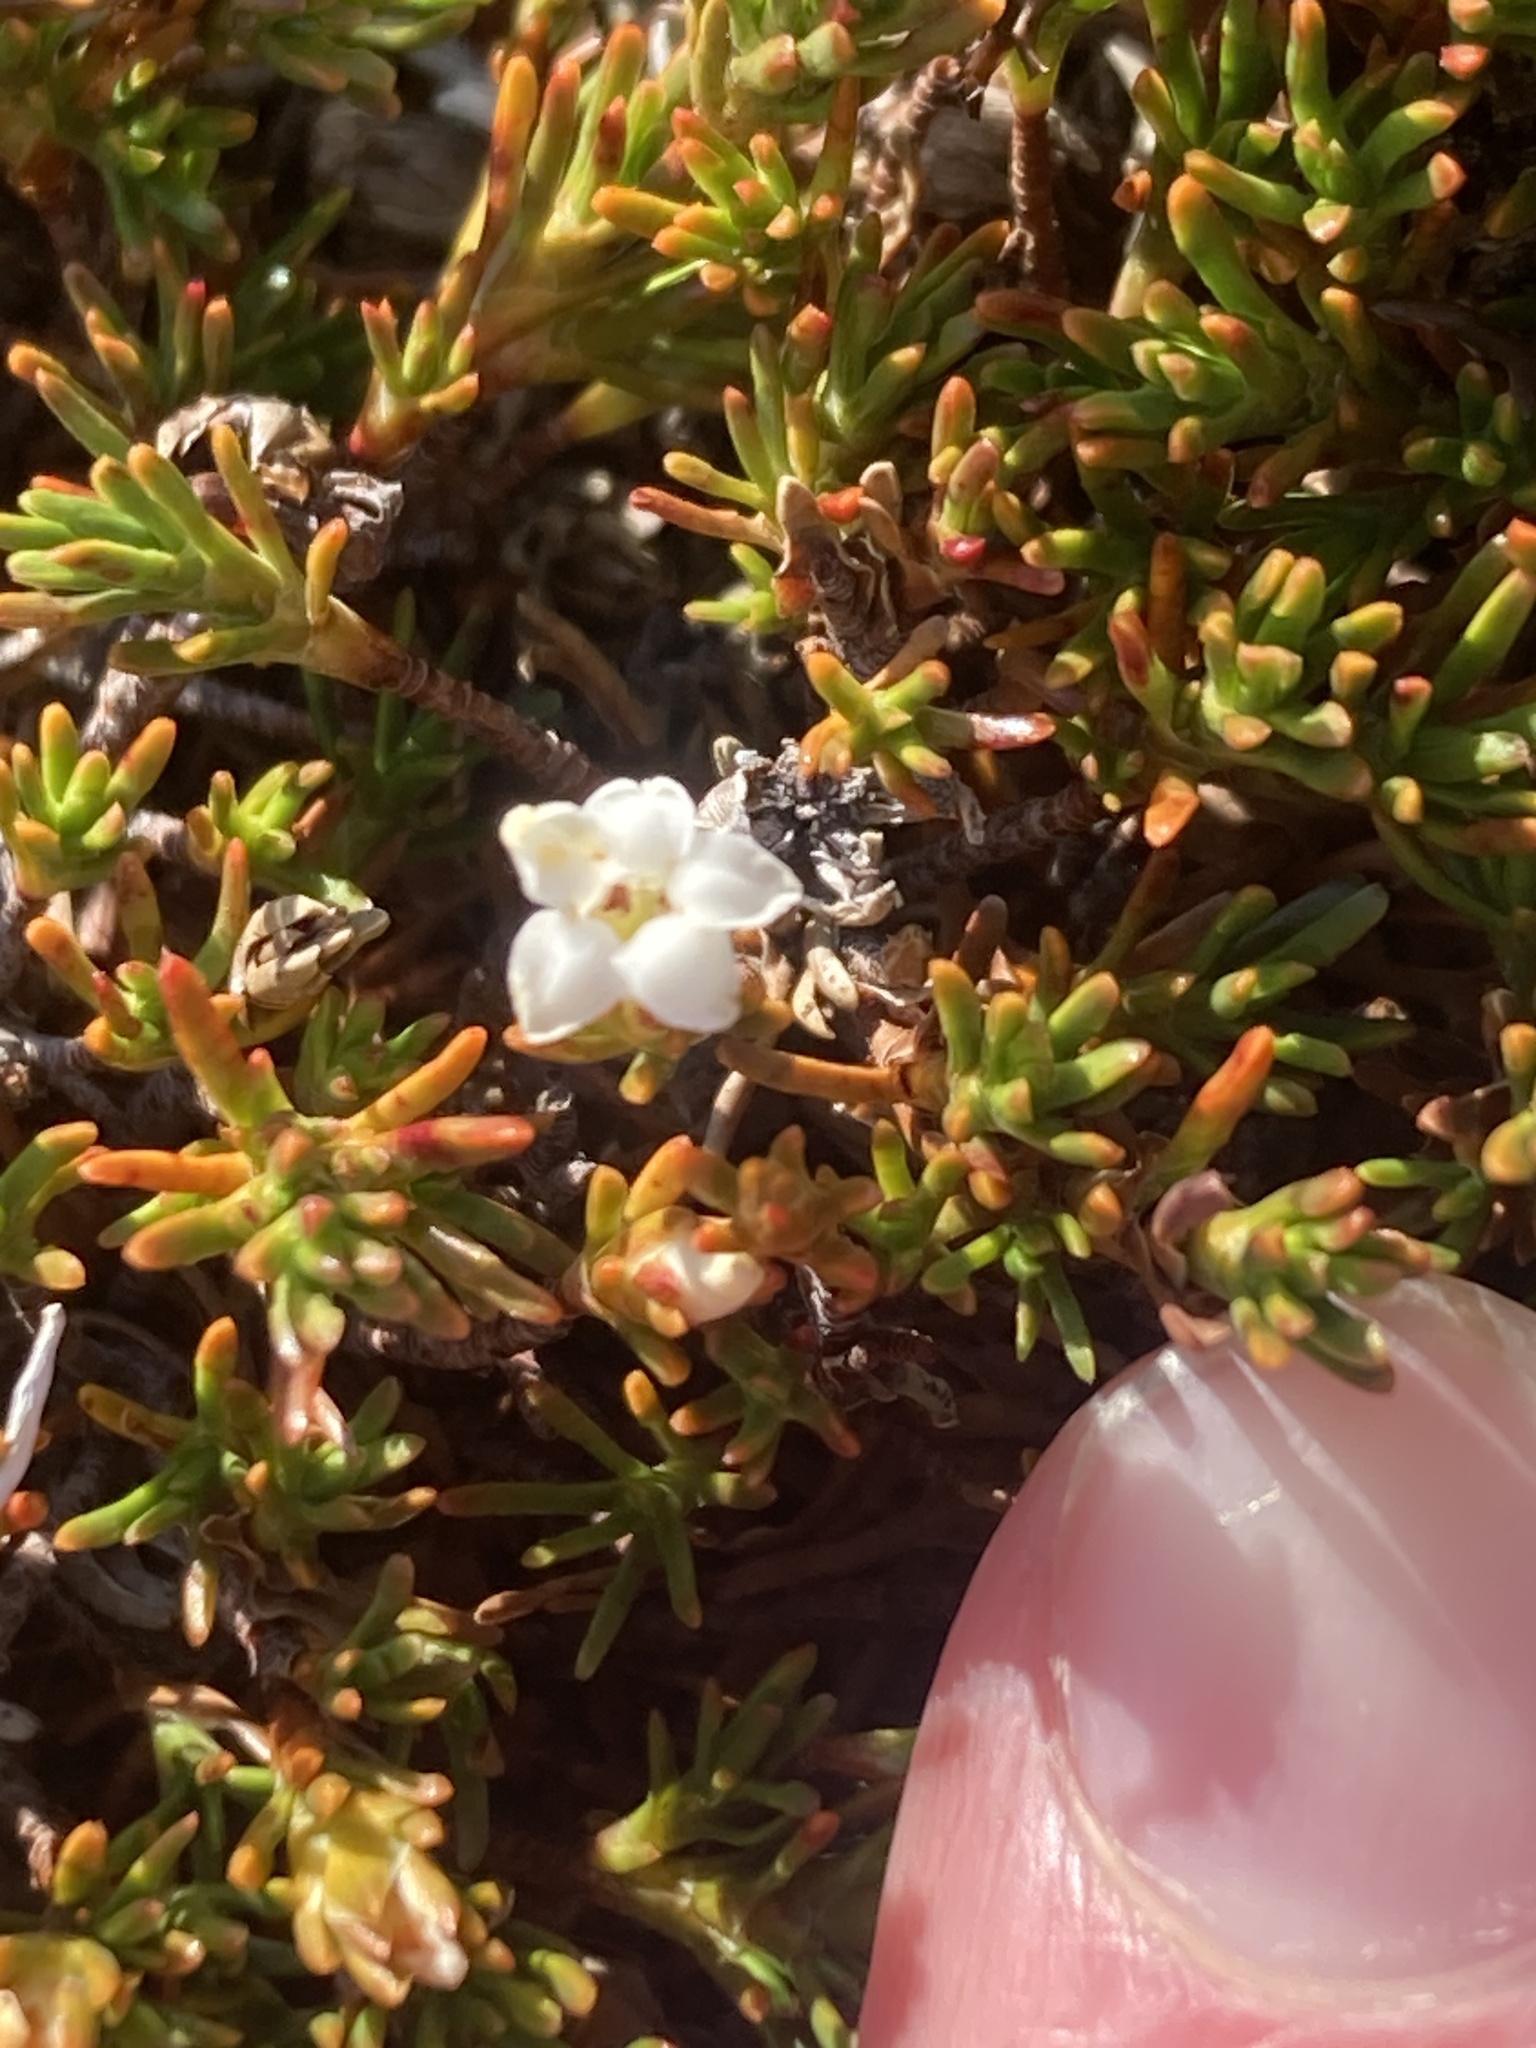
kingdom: Plantae
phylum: Tracheophyta
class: Magnoliopsida
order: Ericales
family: Ericaceae
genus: Dracophyllum
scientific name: Dracophyllum muscoides
